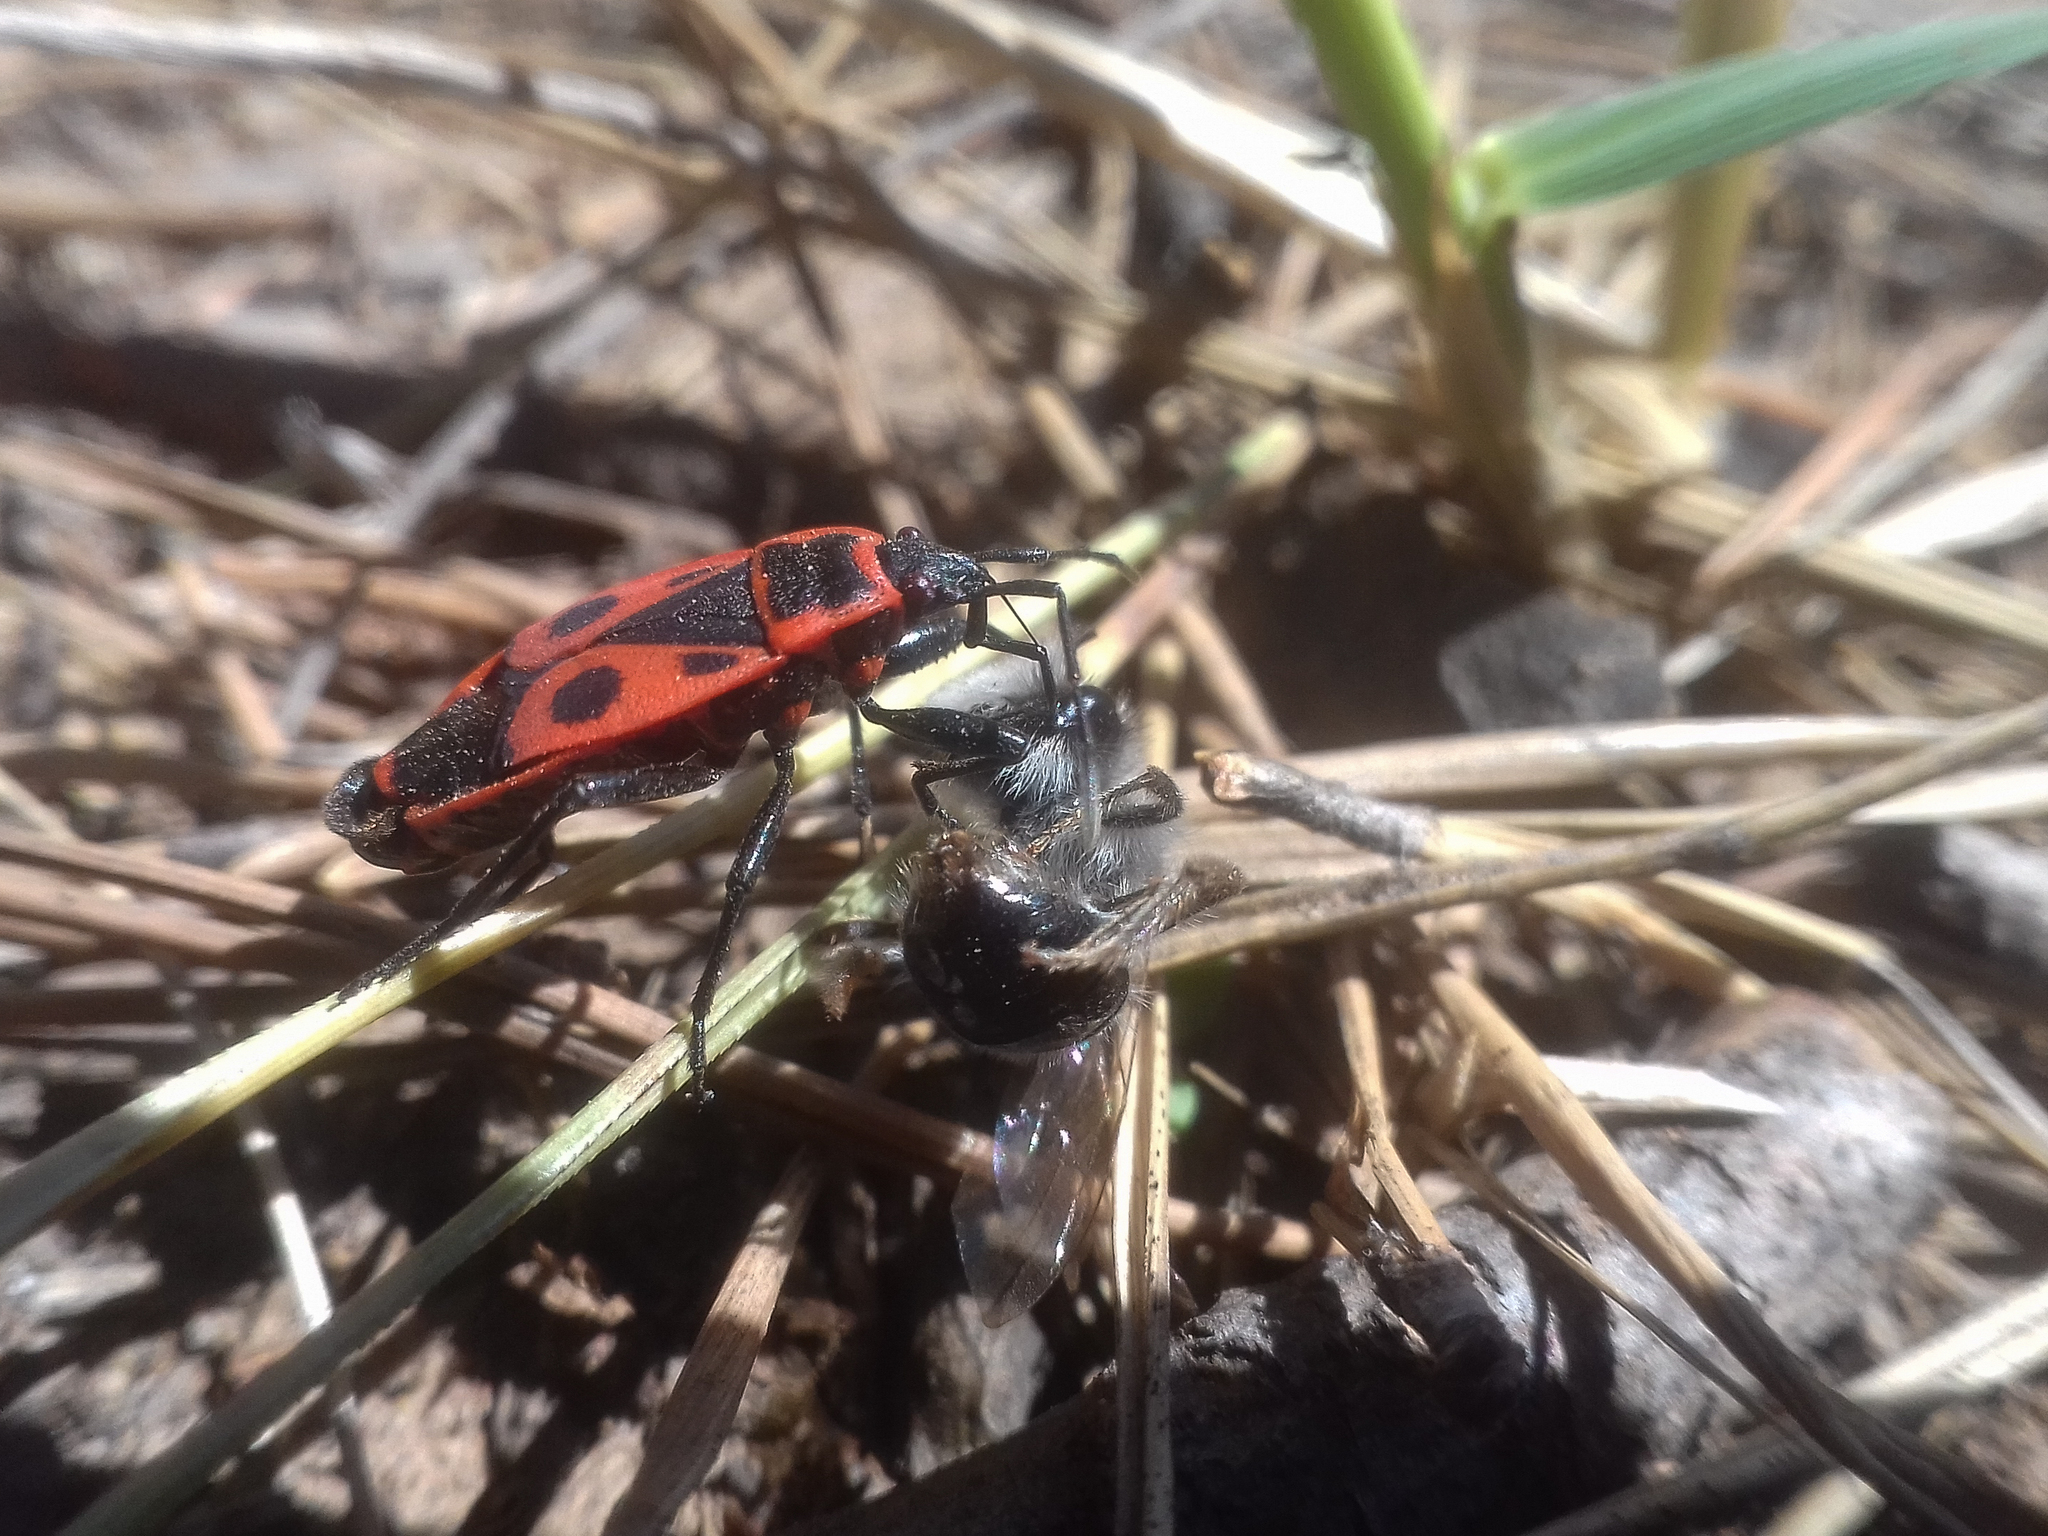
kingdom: Animalia
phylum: Arthropoda
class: Insecta
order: Hemiptera
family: Pyrrhocoridae
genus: Pyrrhocoris
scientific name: Pyrrhocoris apterus
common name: Firebug
